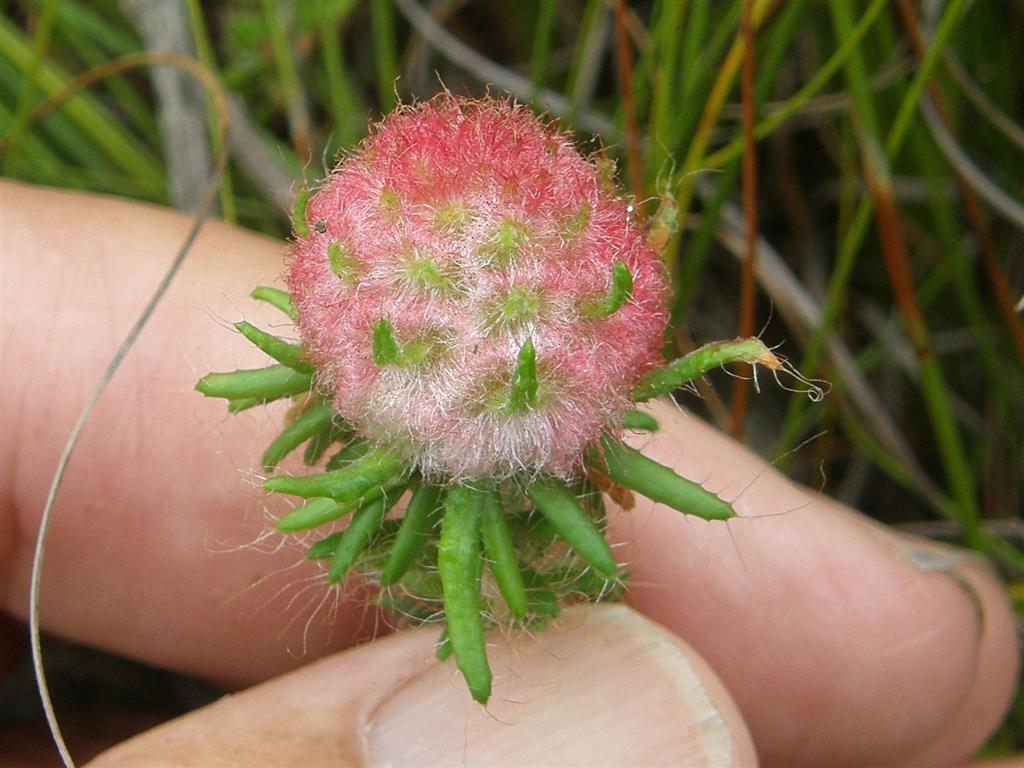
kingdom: Plantae
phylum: Tracheophyta
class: Magnoliopsida
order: Ericales
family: Ericaceae
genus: Erica
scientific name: Erica cerinthoides
